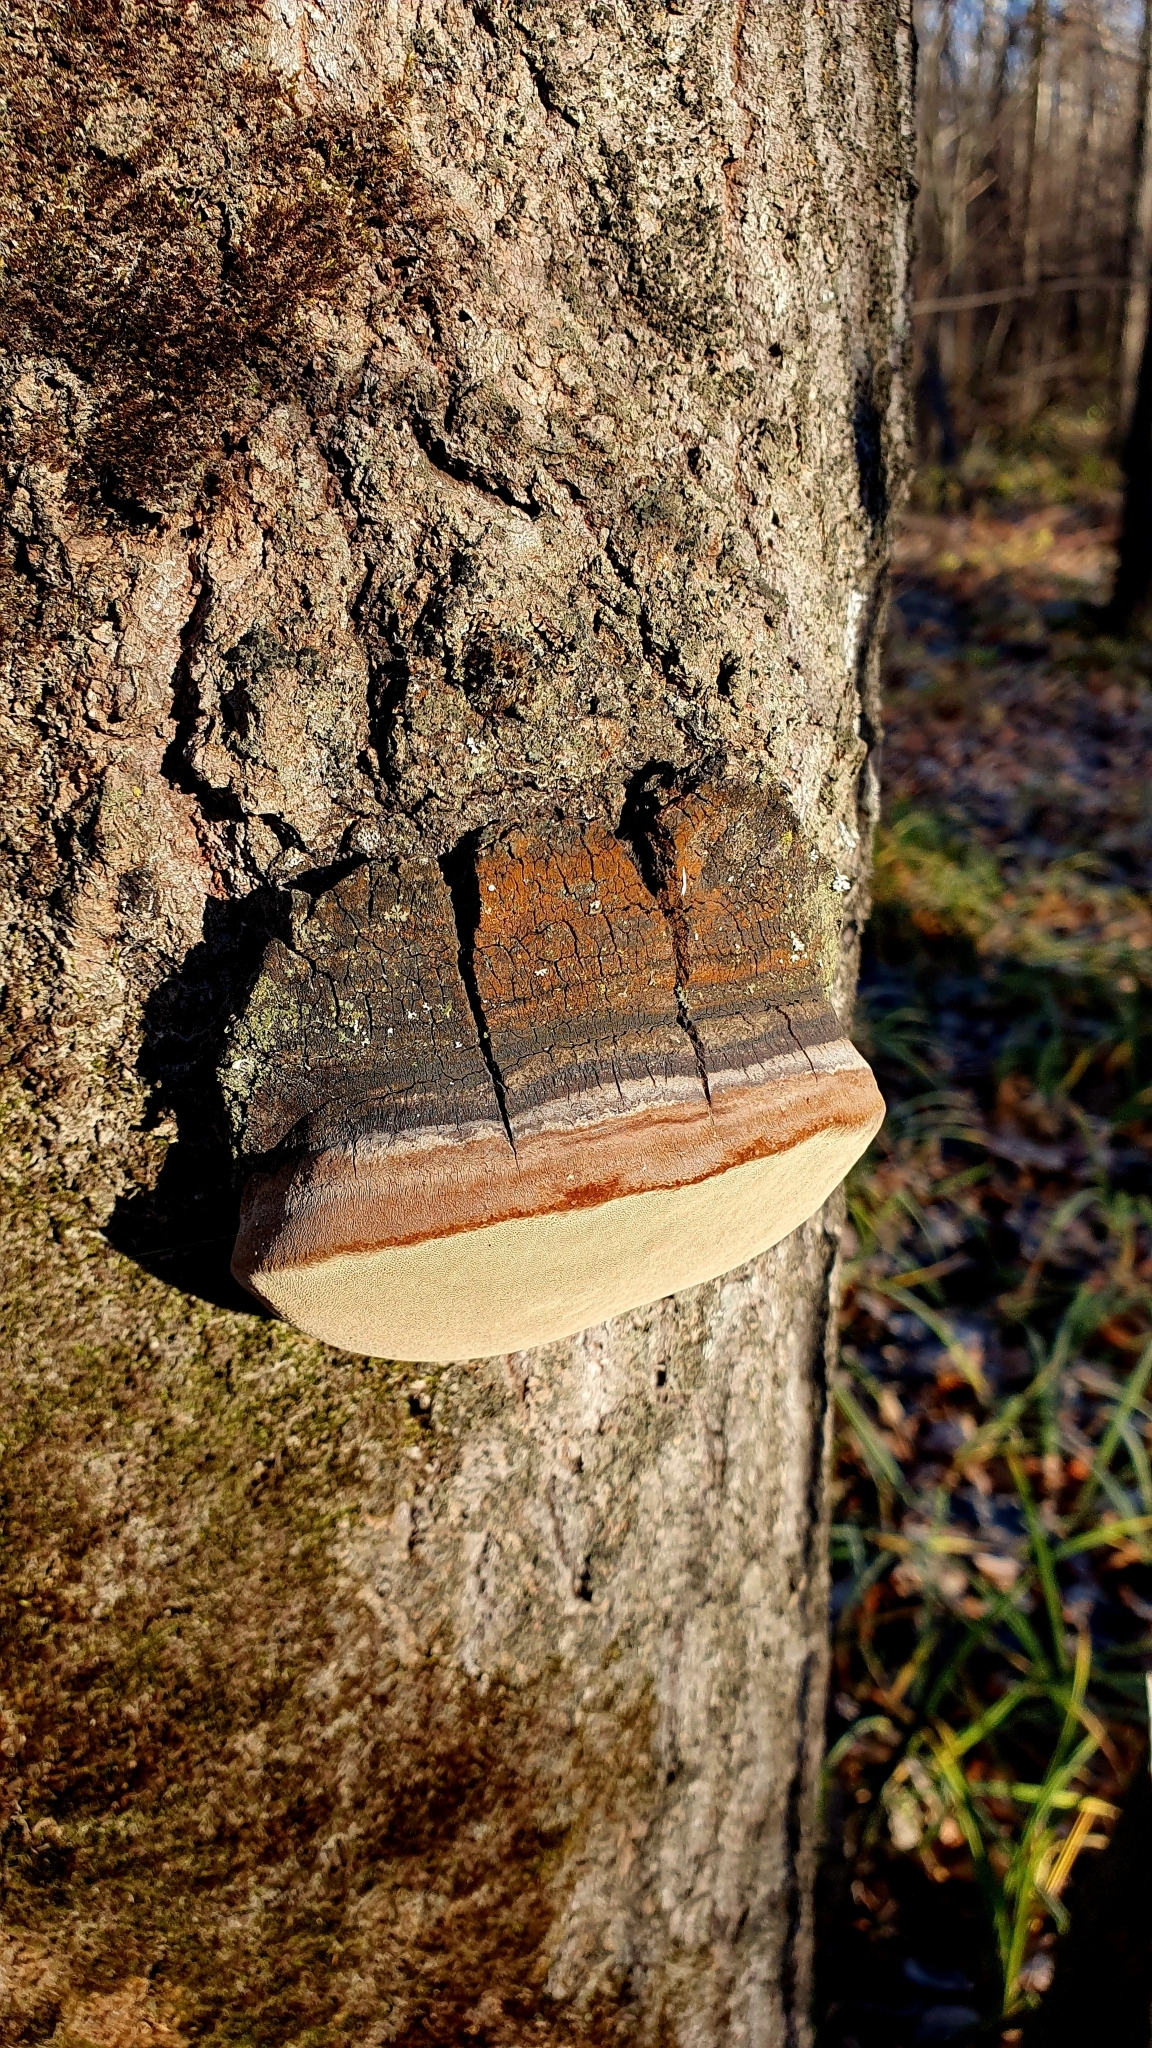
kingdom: Fungi
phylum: Basidiomycota
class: Agaricomycetes
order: Hymenochaetales
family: Hymenochaetaceae
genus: Phellinus
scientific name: Phellinus tremulae
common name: Aspen bracket
